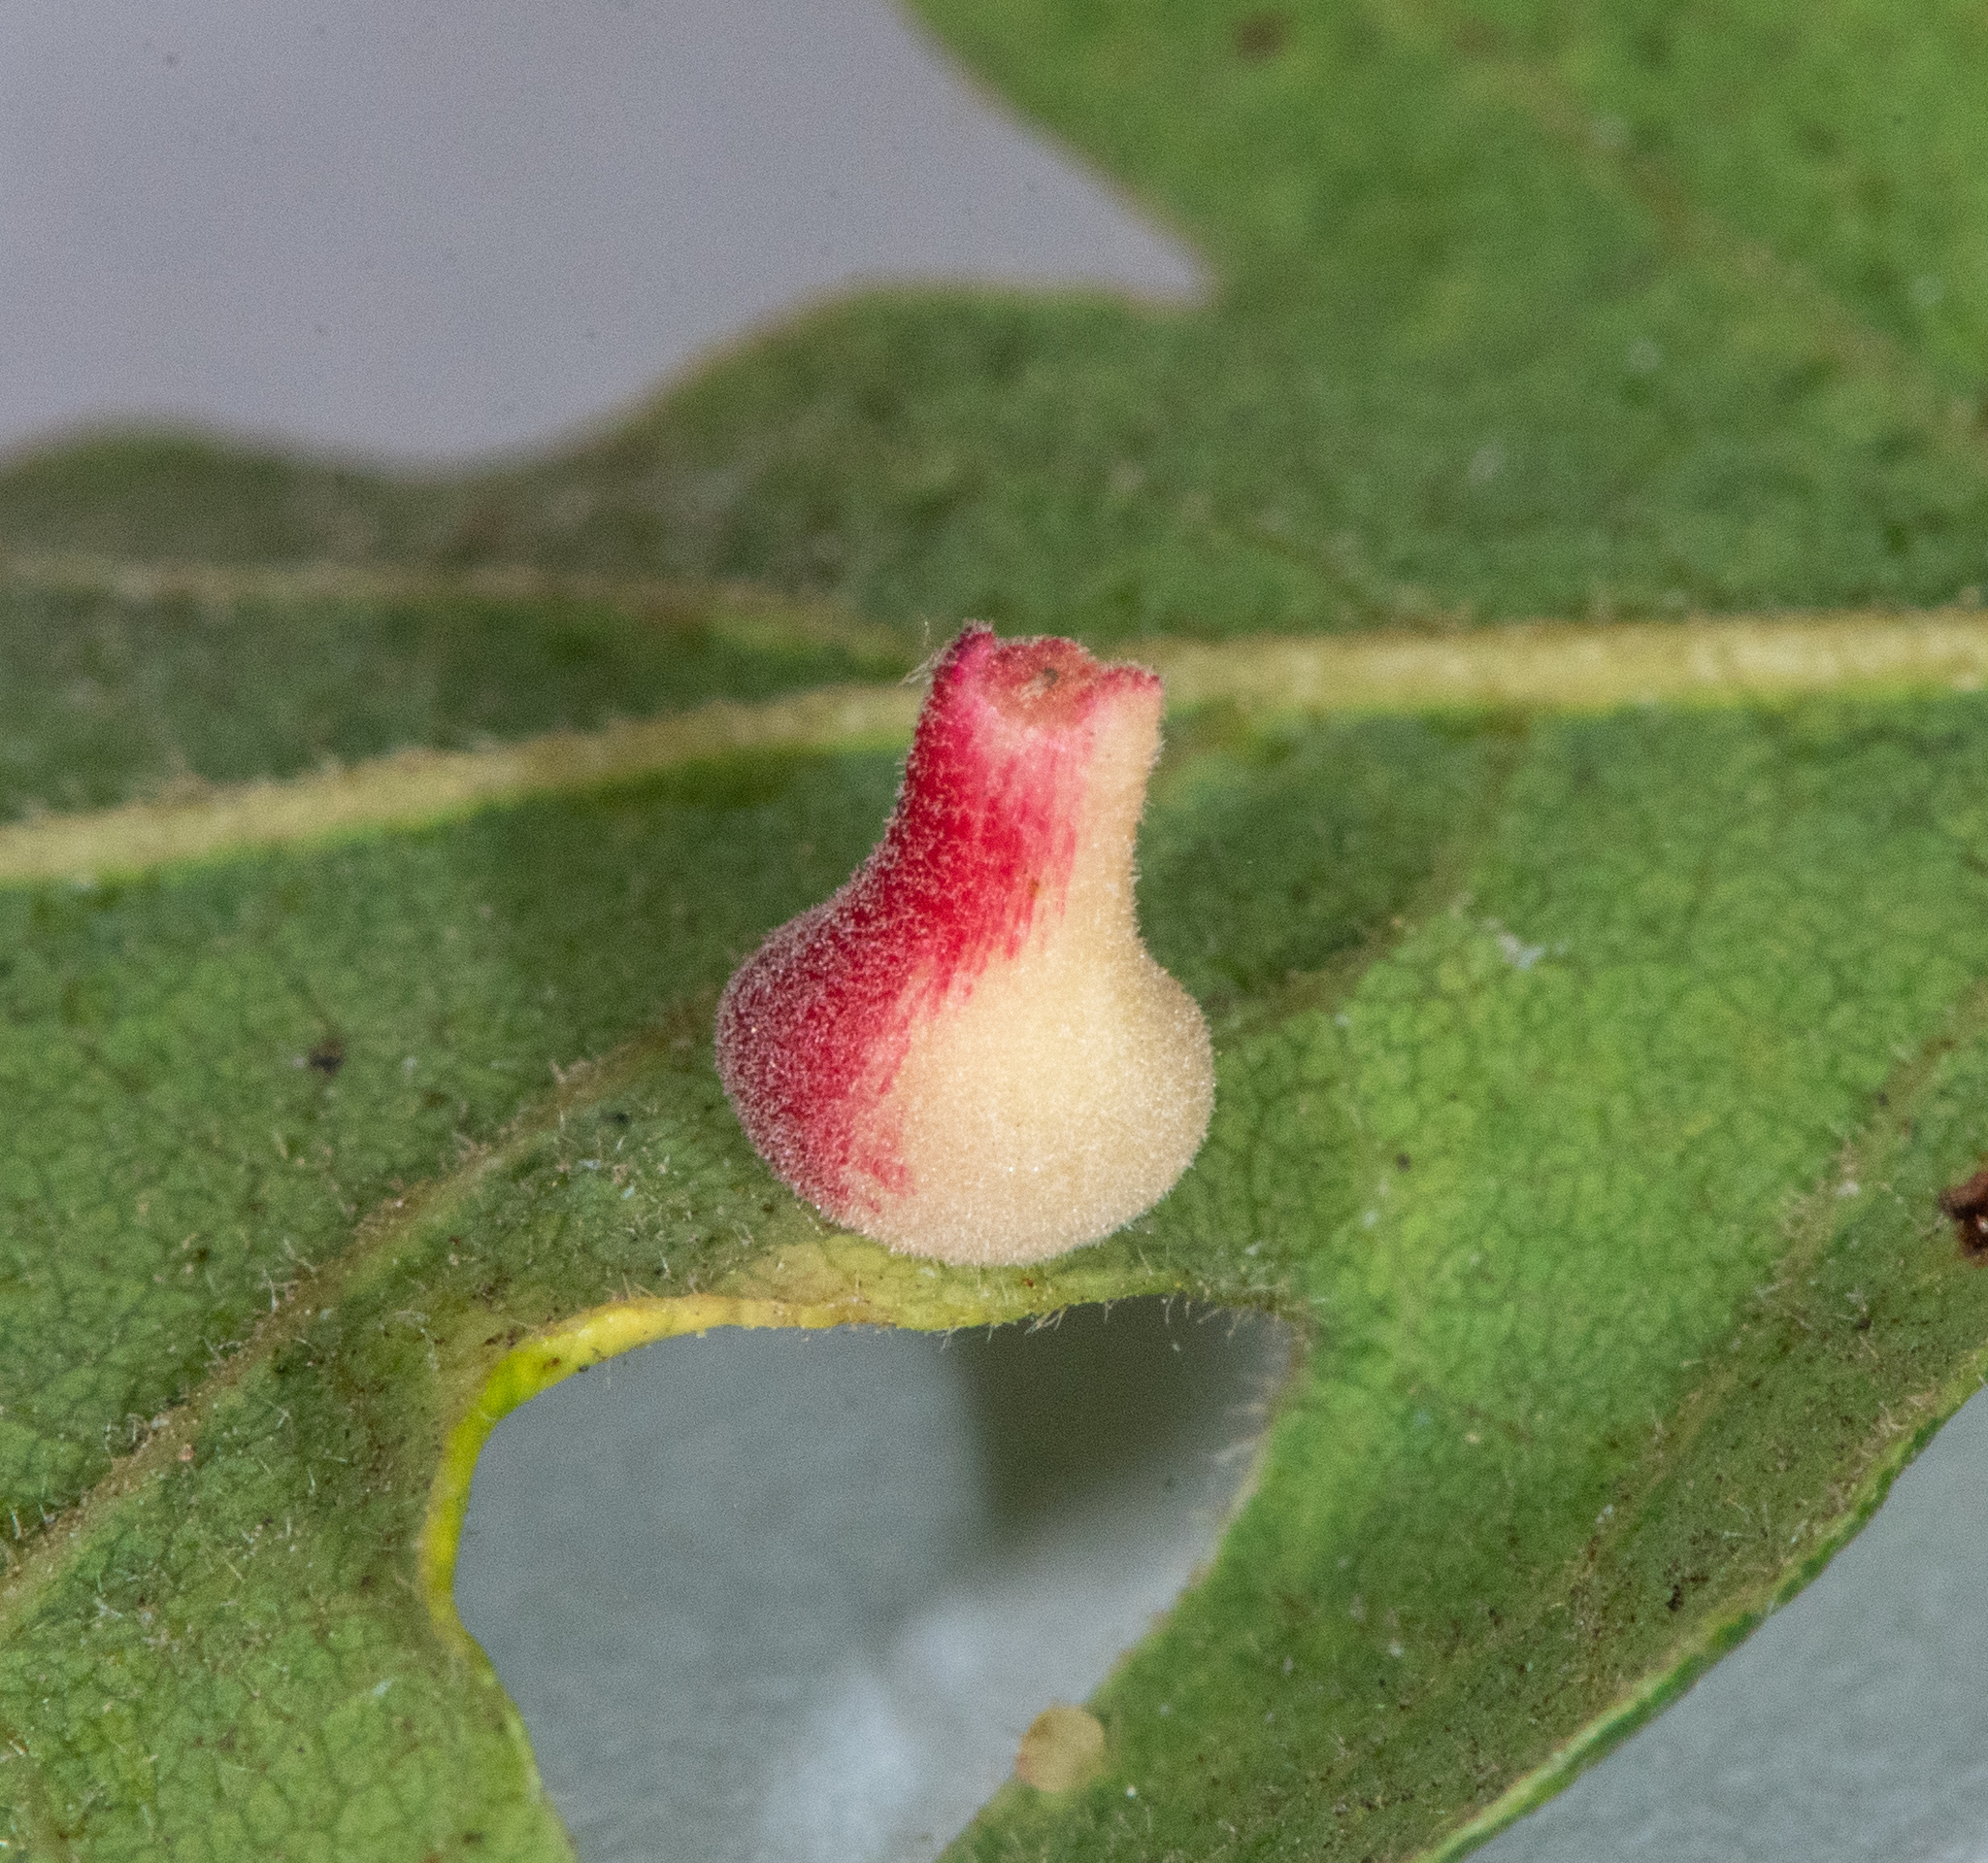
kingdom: Animalia
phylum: Arthropoda
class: Insecta
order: Hymenoptera
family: Cynipidae
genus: Andricus
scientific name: Andricus
